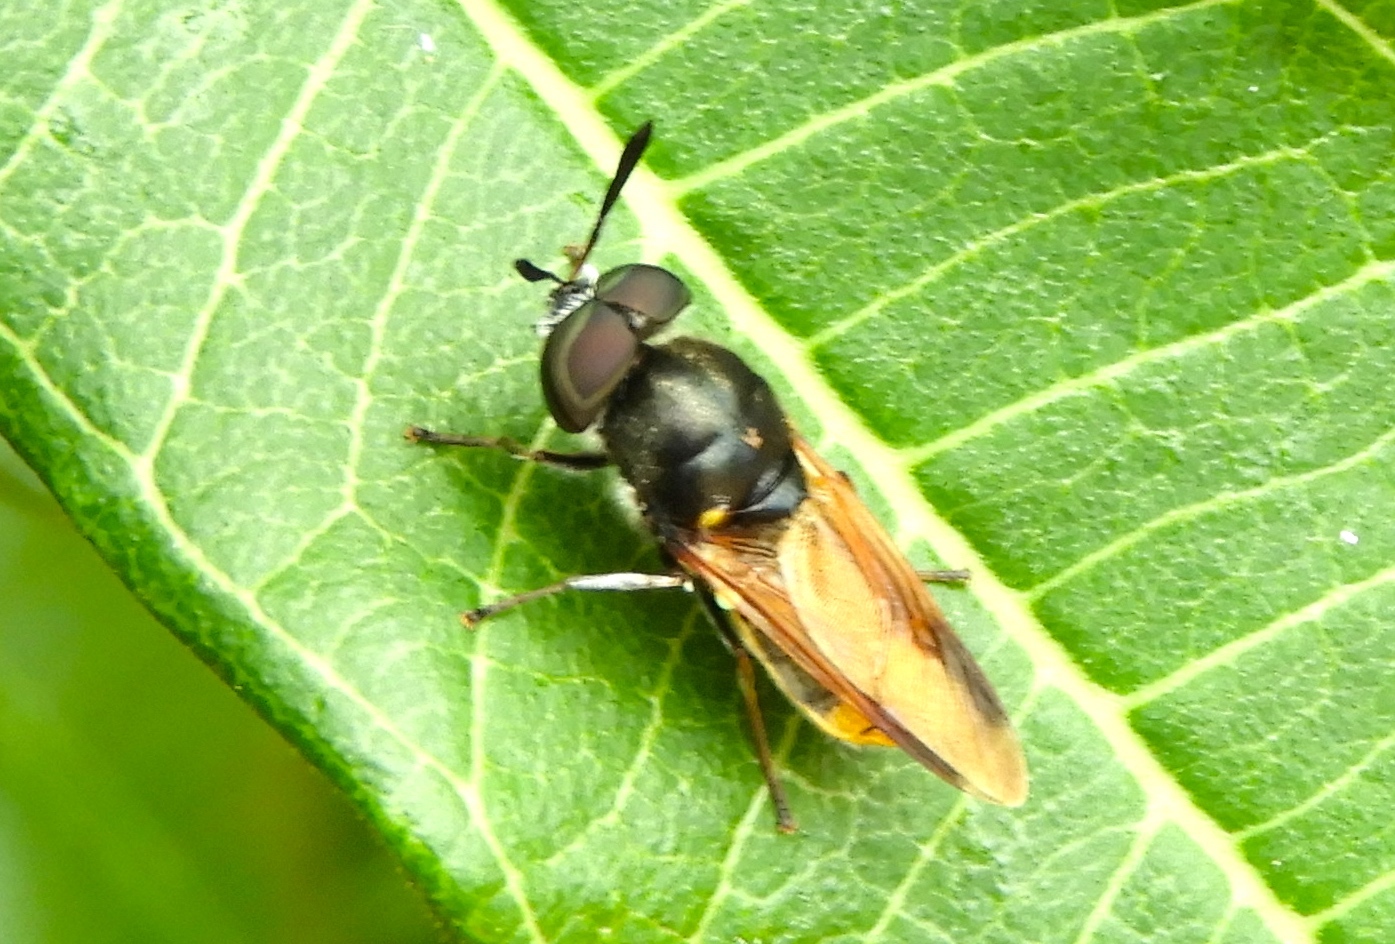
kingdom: Animalia
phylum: Arthropoda
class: Insecta
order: Diptera
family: Stratiomyidae
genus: Hoplitimyia
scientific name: Hoplitimyia mutabilis
